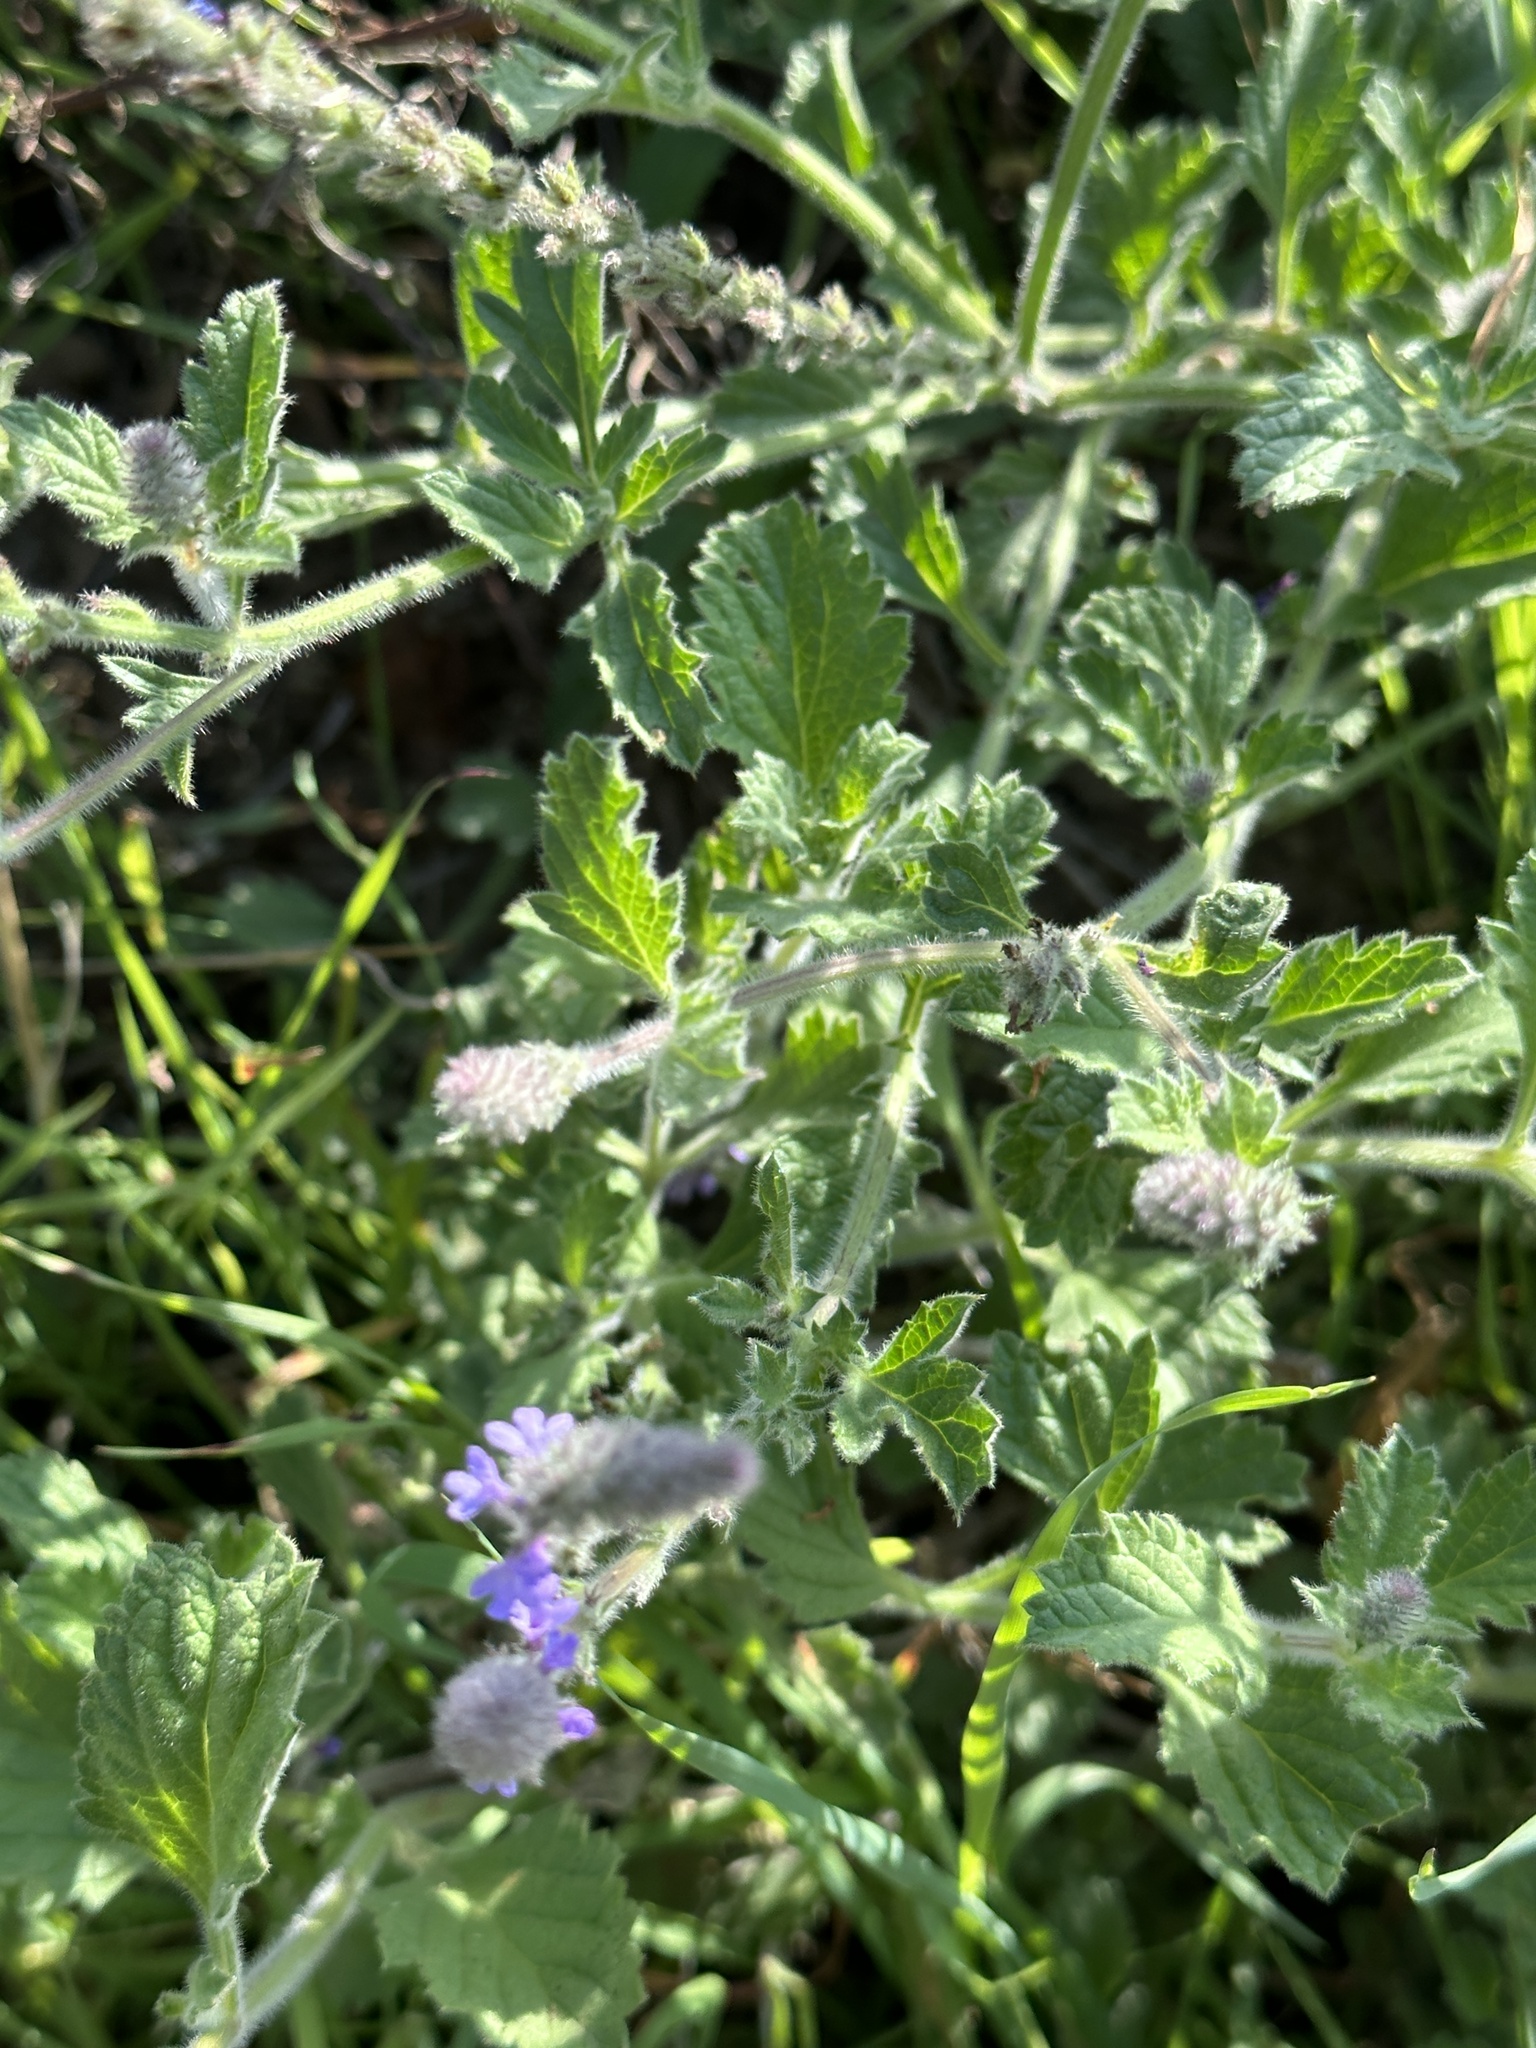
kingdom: Plantae
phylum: Tracheophyta
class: Magnoliopsida
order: Lamiales
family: Verbenaceae
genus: Verbena
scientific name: Verbena lasiostachys
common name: Vervain
